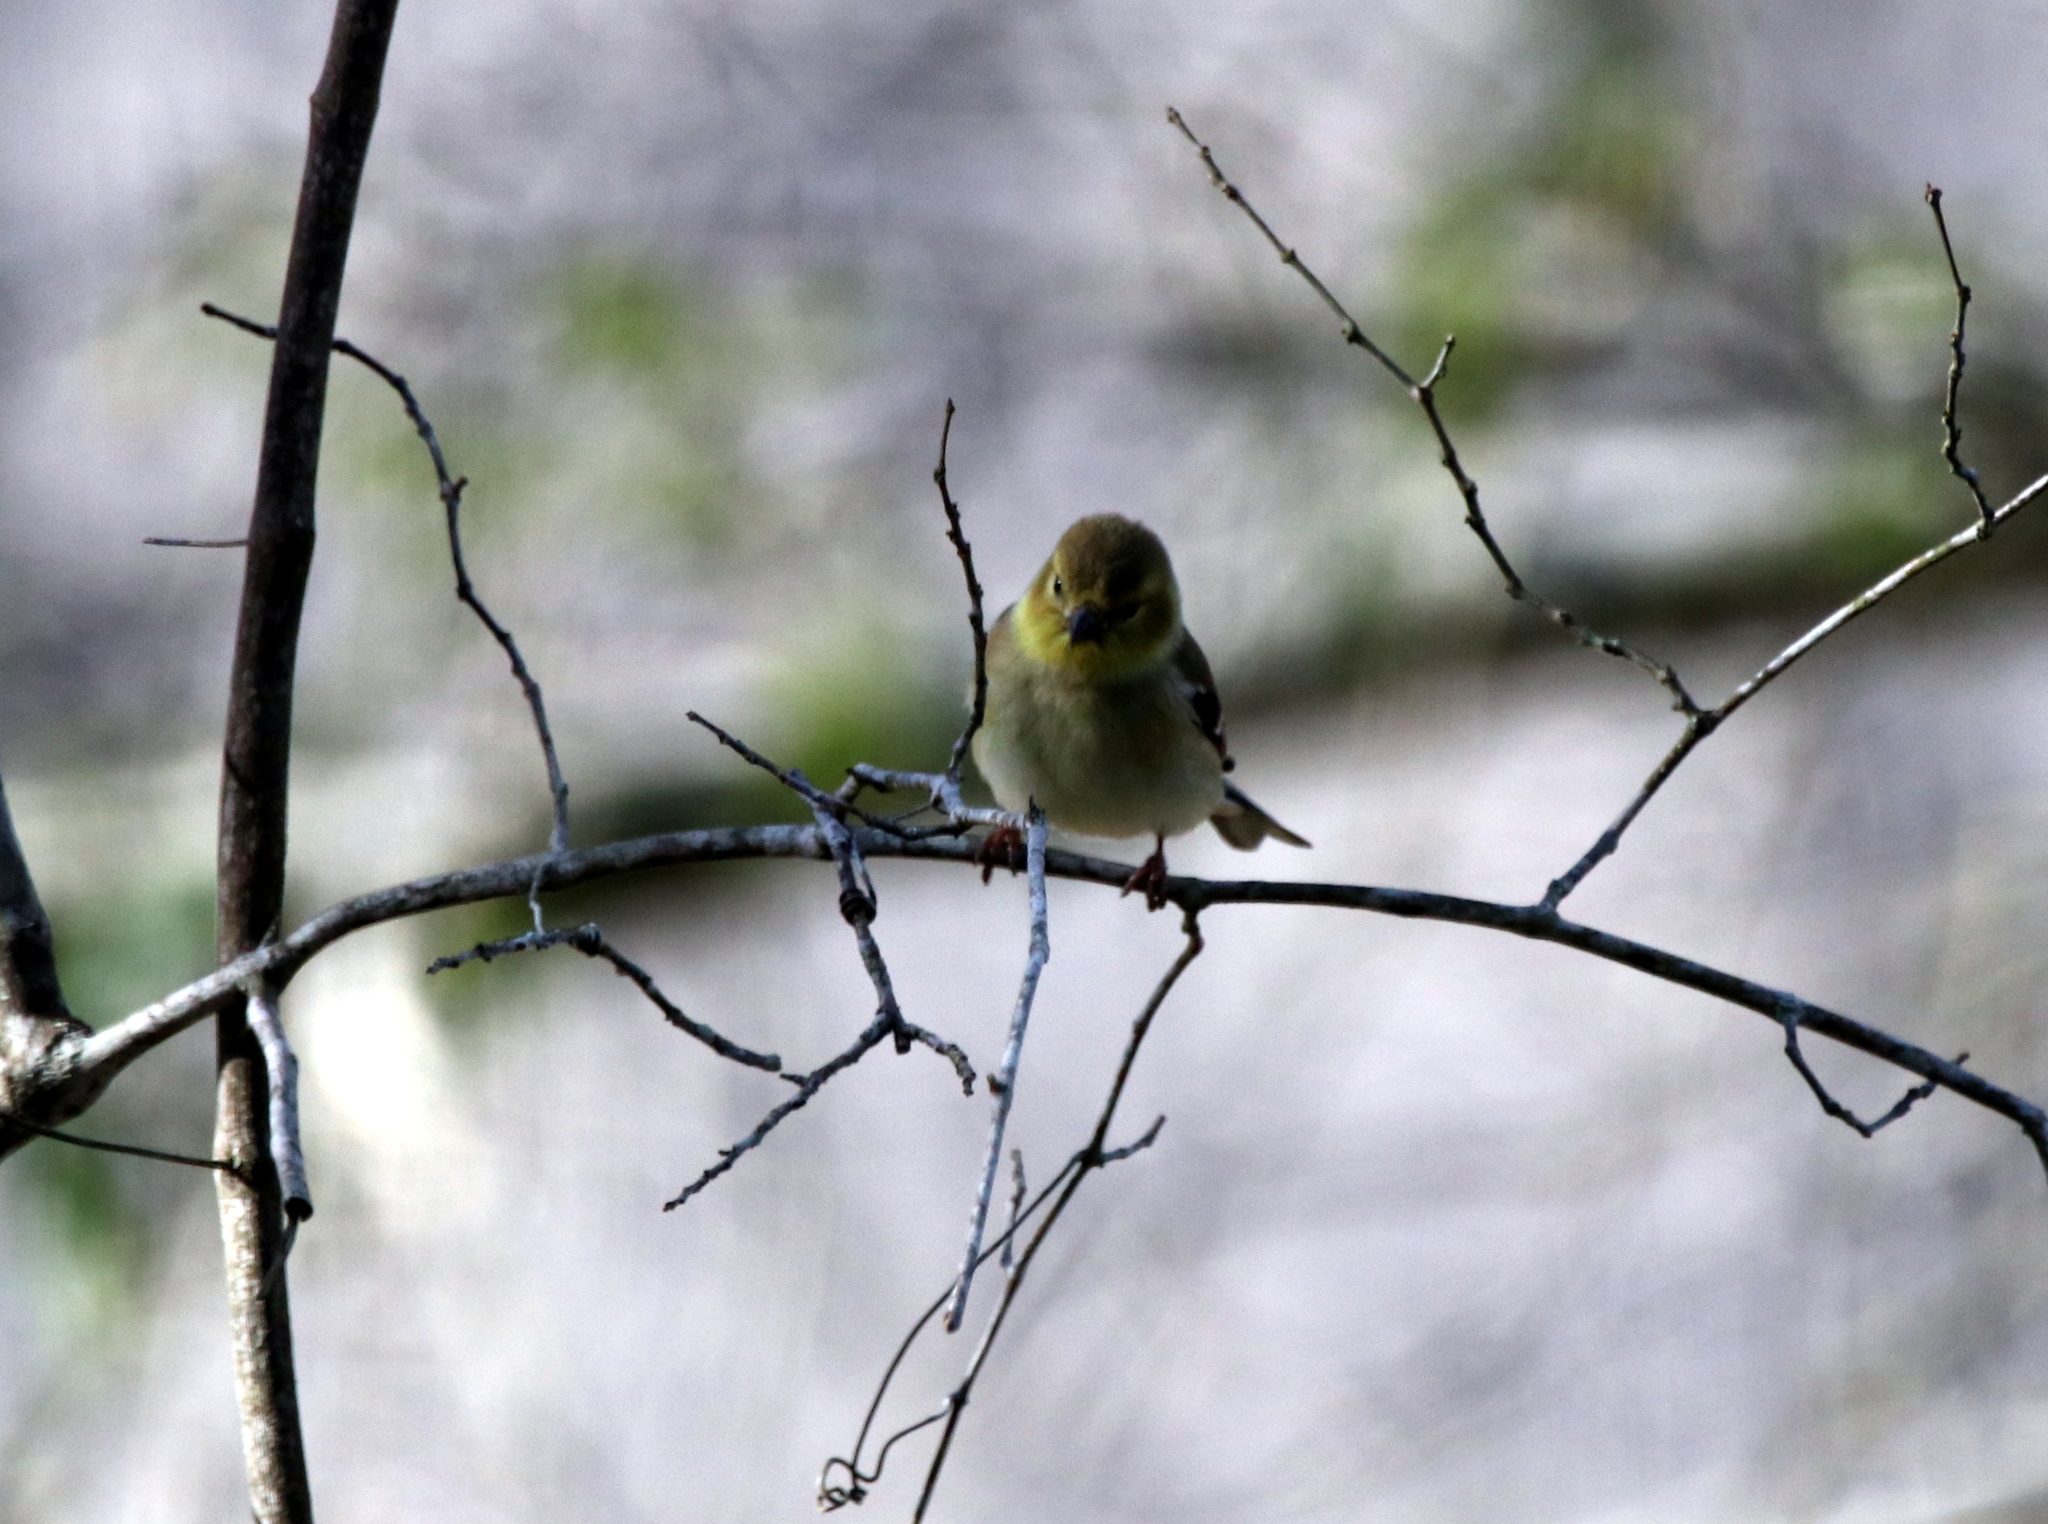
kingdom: Animalia
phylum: Chordata
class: Aves
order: Passeriformes
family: Fringillidae
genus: Spinus
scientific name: Spinus tristis
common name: American goldfinch
